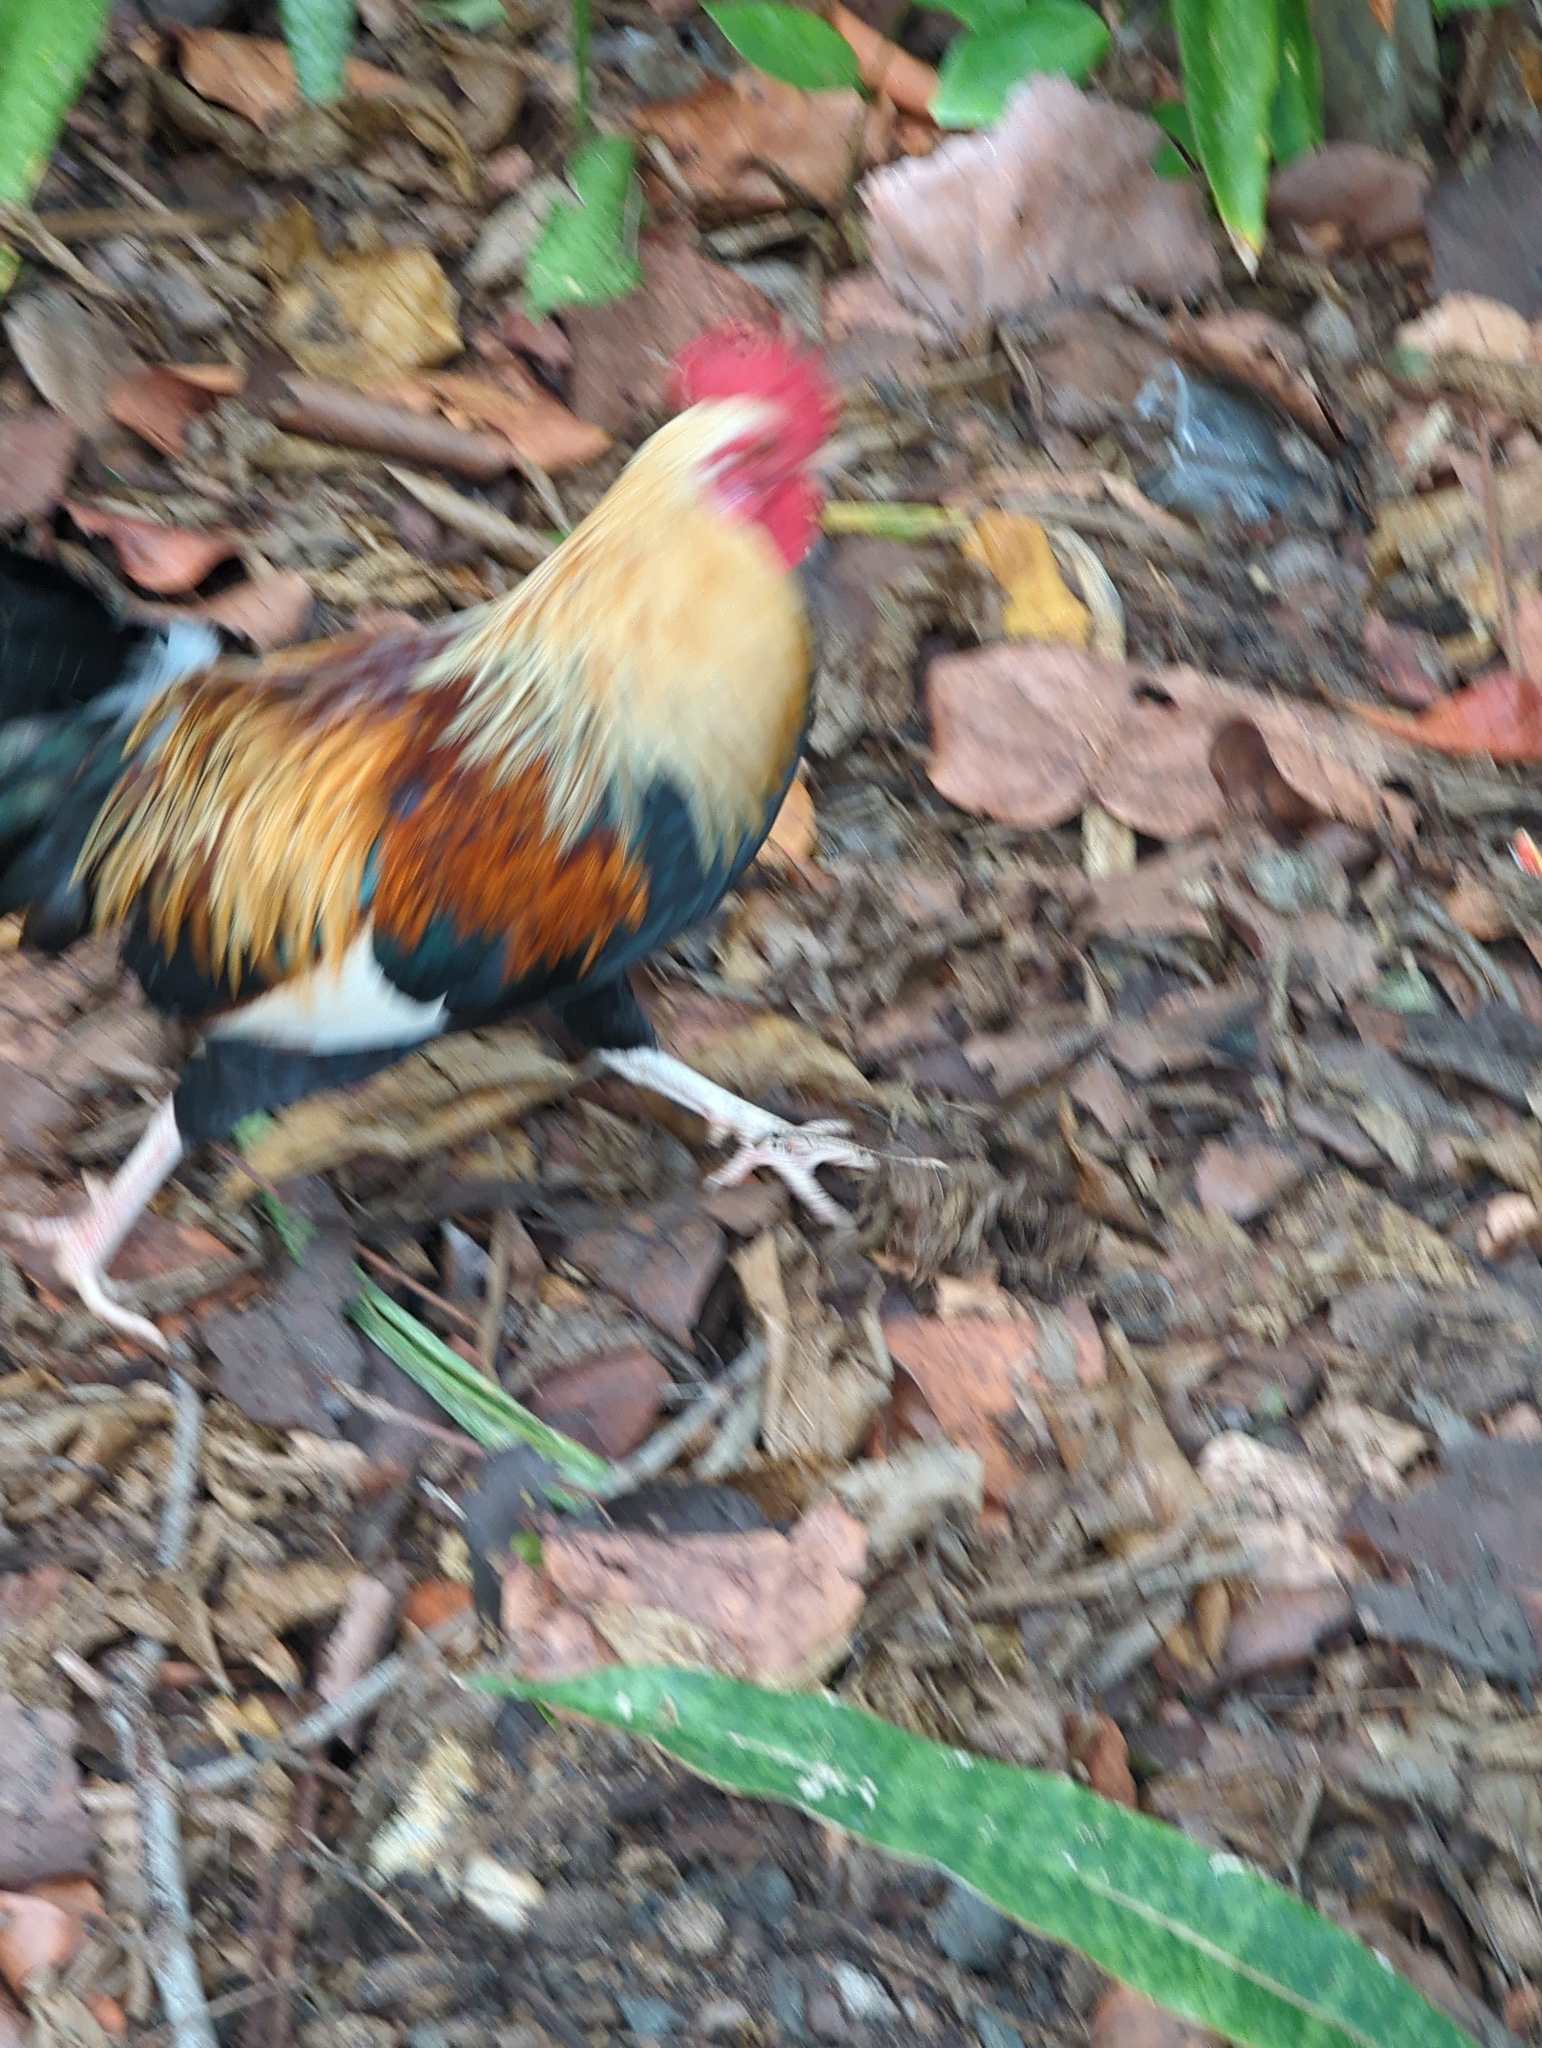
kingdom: Animalia
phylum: Chordata
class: Aves
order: Galliformes
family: Phasianidae
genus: Gallus
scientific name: Gallus gallus
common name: Red junglefowl
